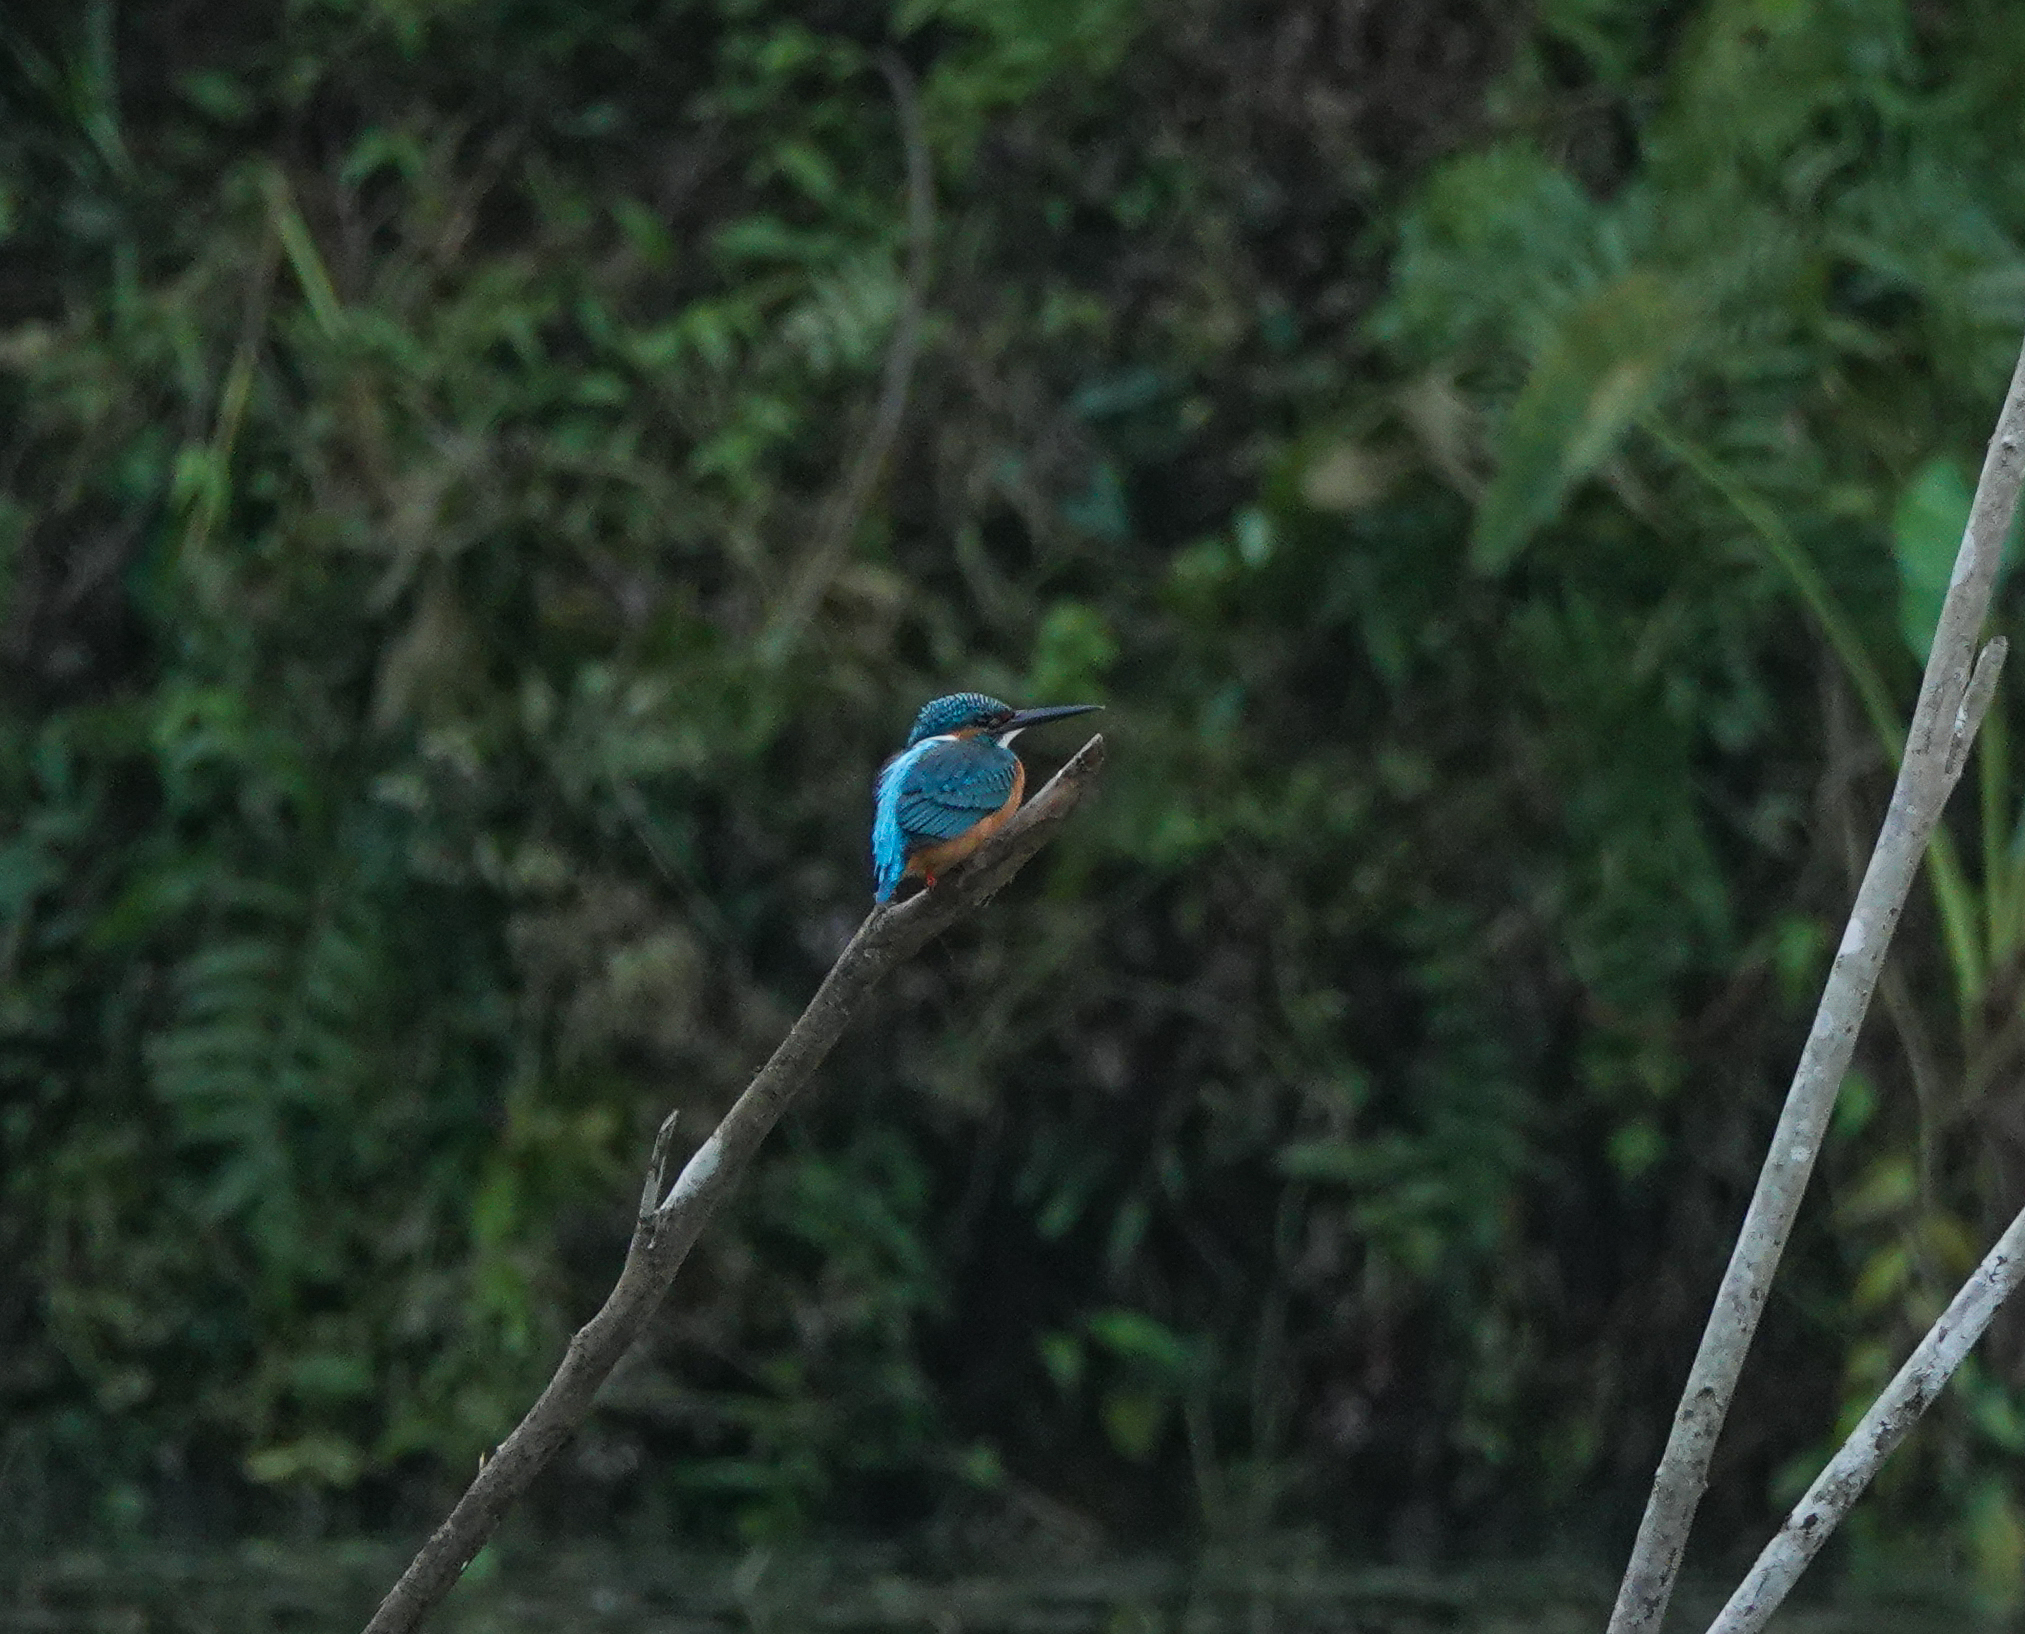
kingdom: Animalia
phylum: Chordata
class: Aves
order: Coraciiformes
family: Alcedinidae
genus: Alcedo
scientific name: Alcedo atthis
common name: Common kingfisher
